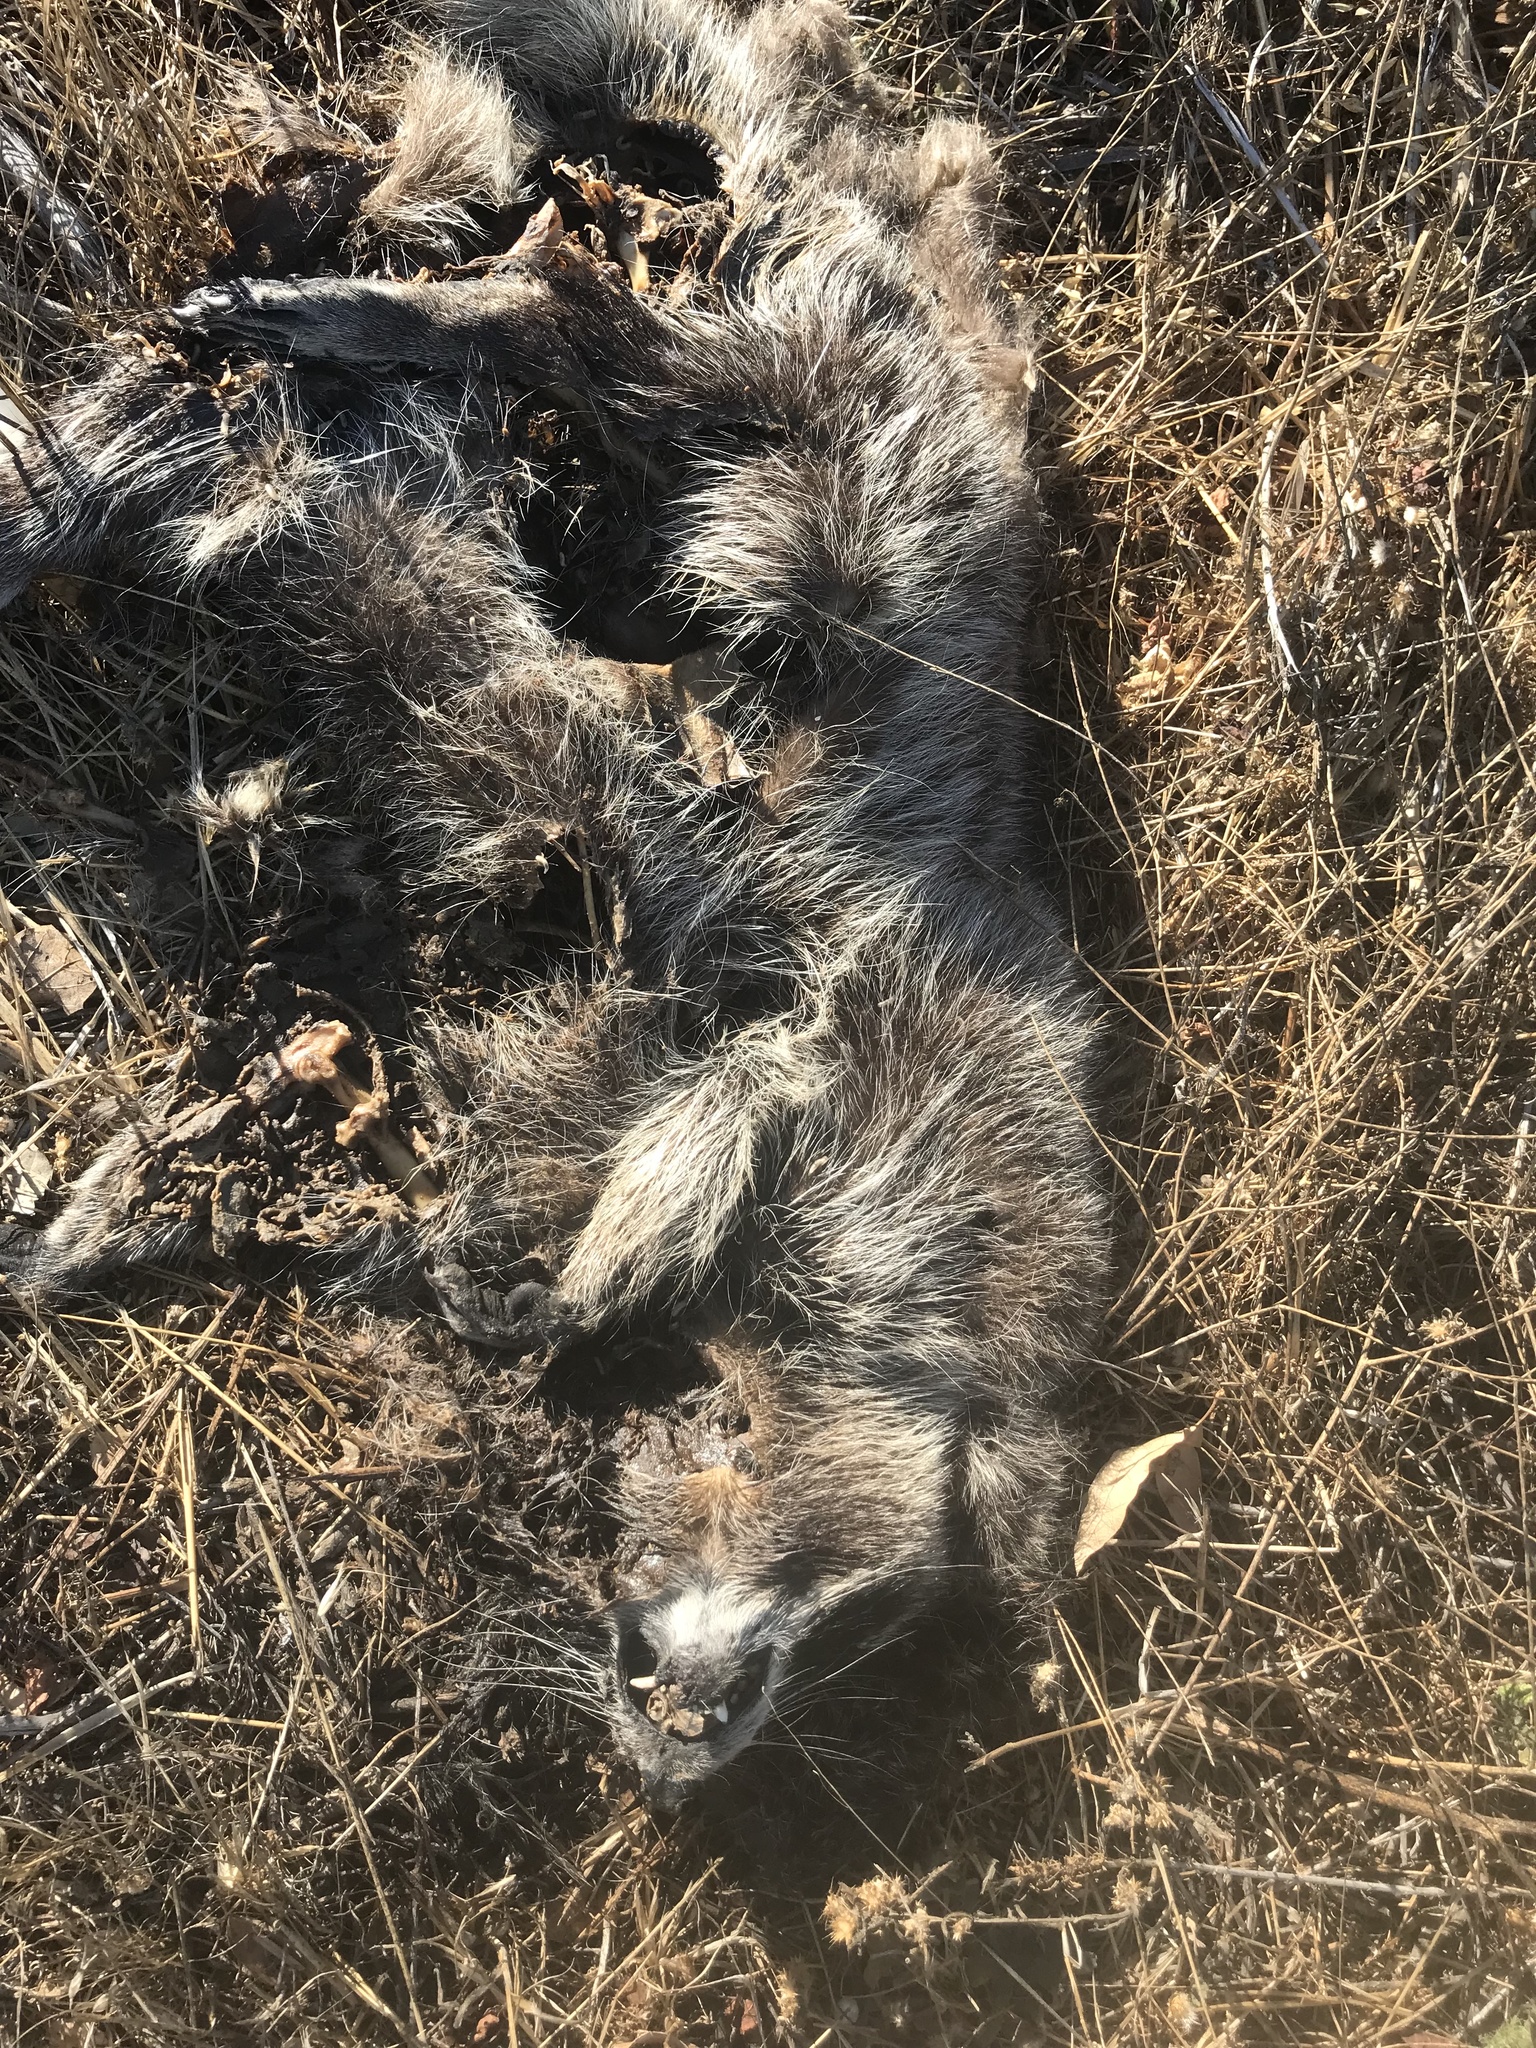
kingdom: Animalia
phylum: Chordata
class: Mammalia
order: Carnivora
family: Procyonidae
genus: Procyon
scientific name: Procyon lotor
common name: Raccoon
